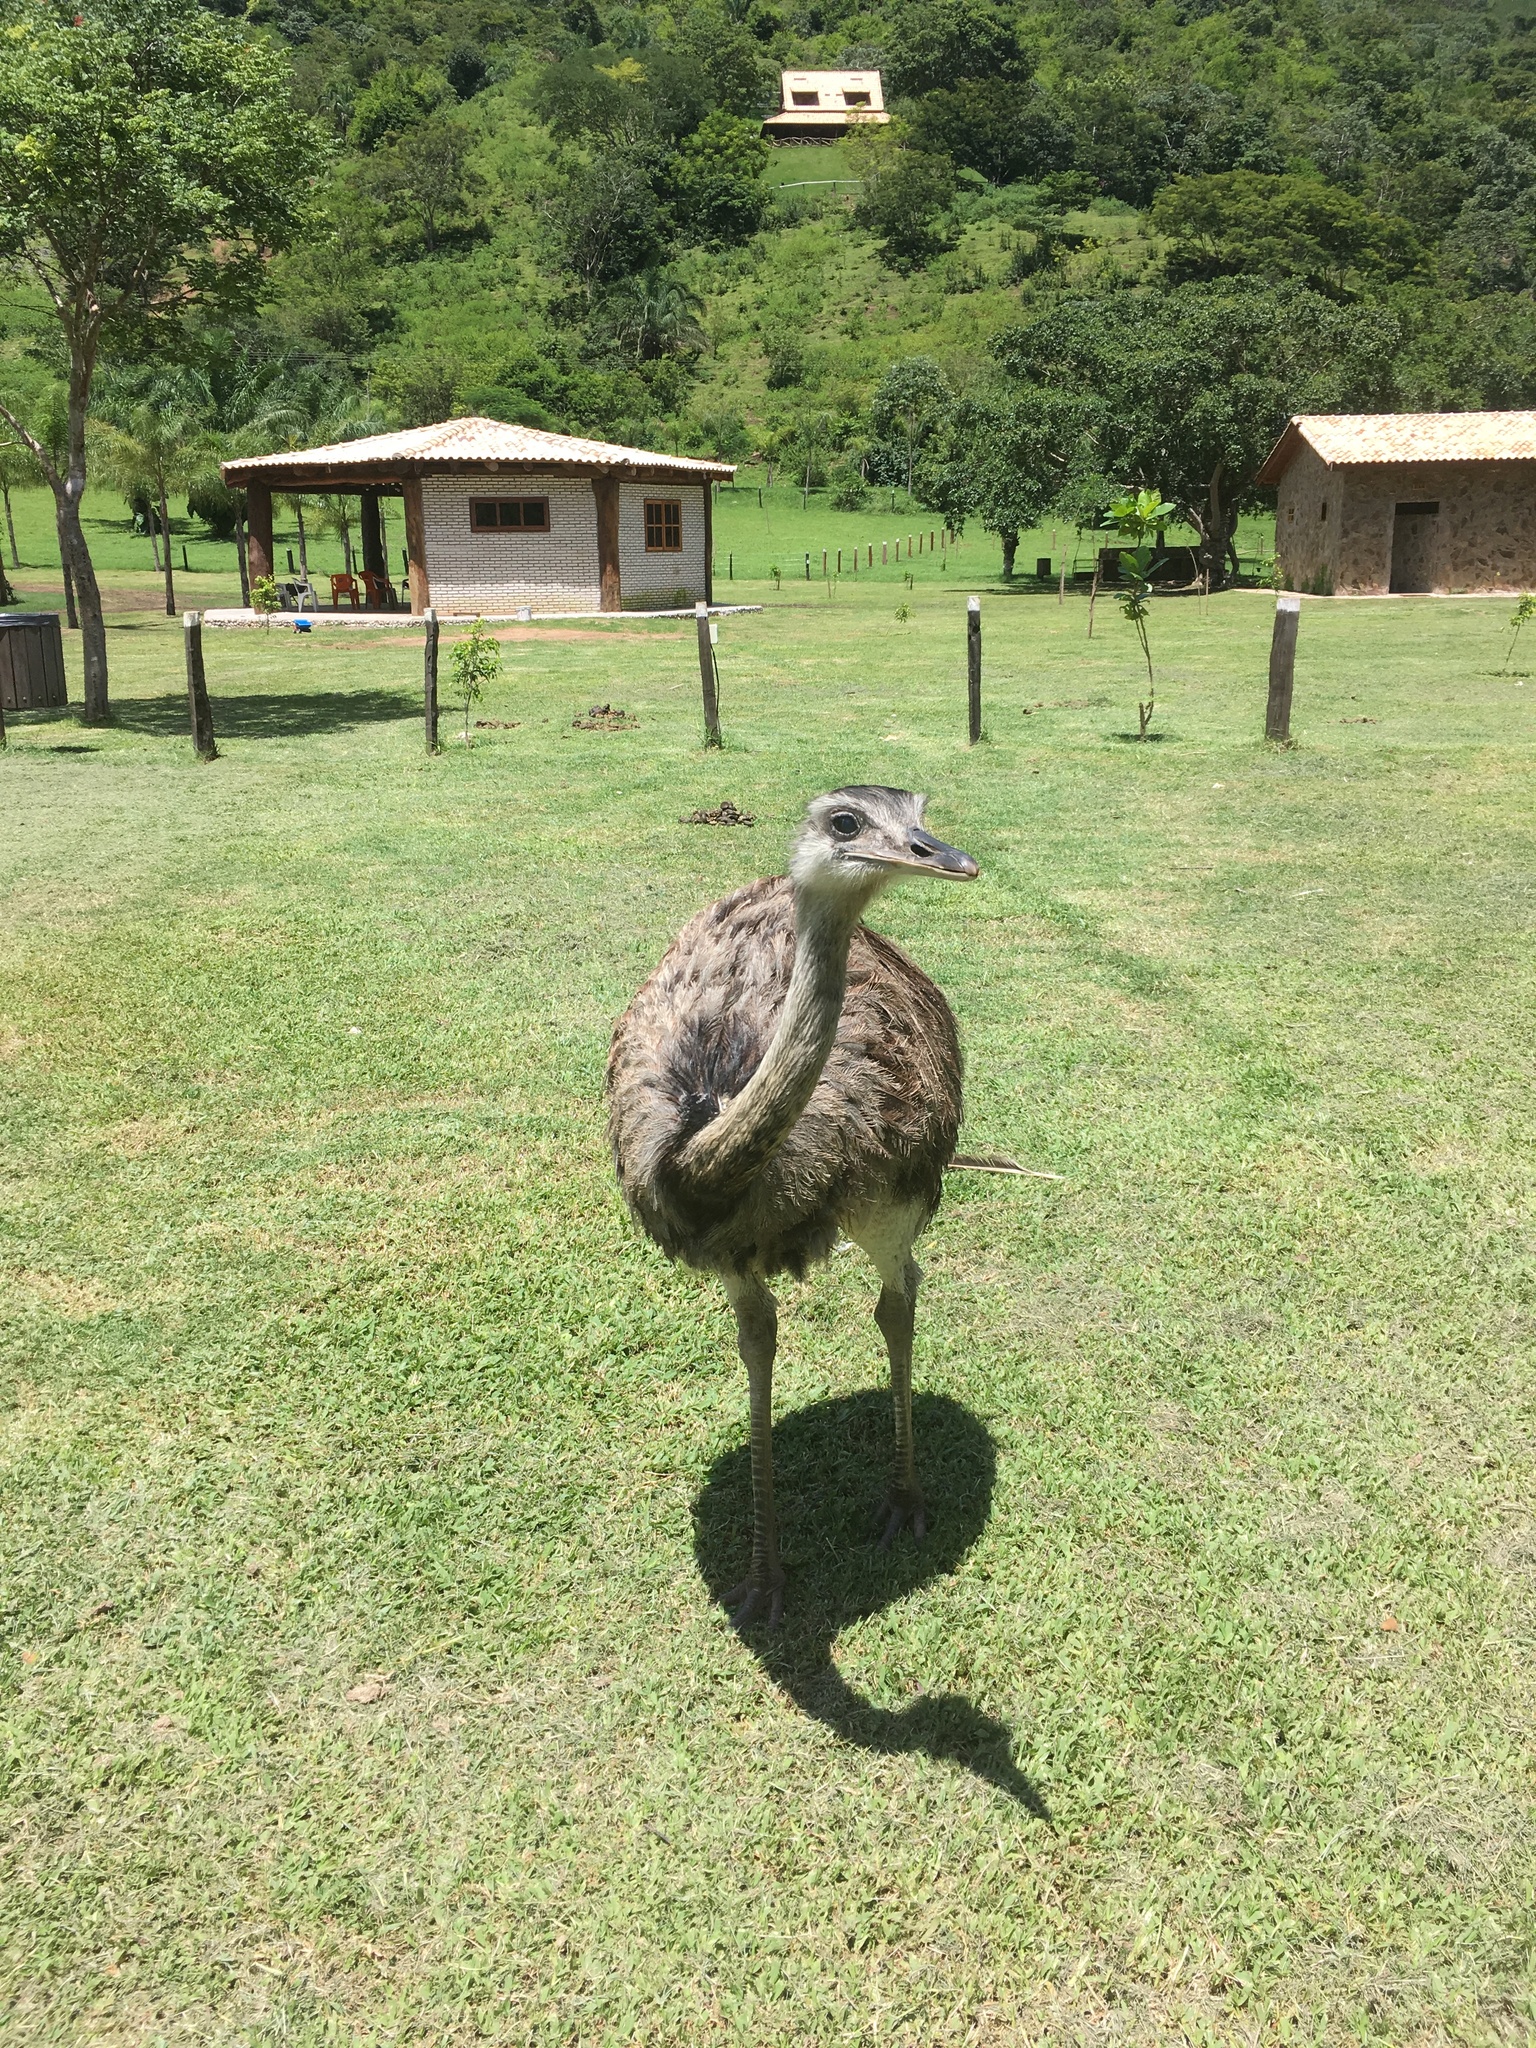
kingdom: Animalia
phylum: Chordata
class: Aves
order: Rheiformes
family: Rheidae
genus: Rhea
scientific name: Rhea americana
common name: Greater rhea
